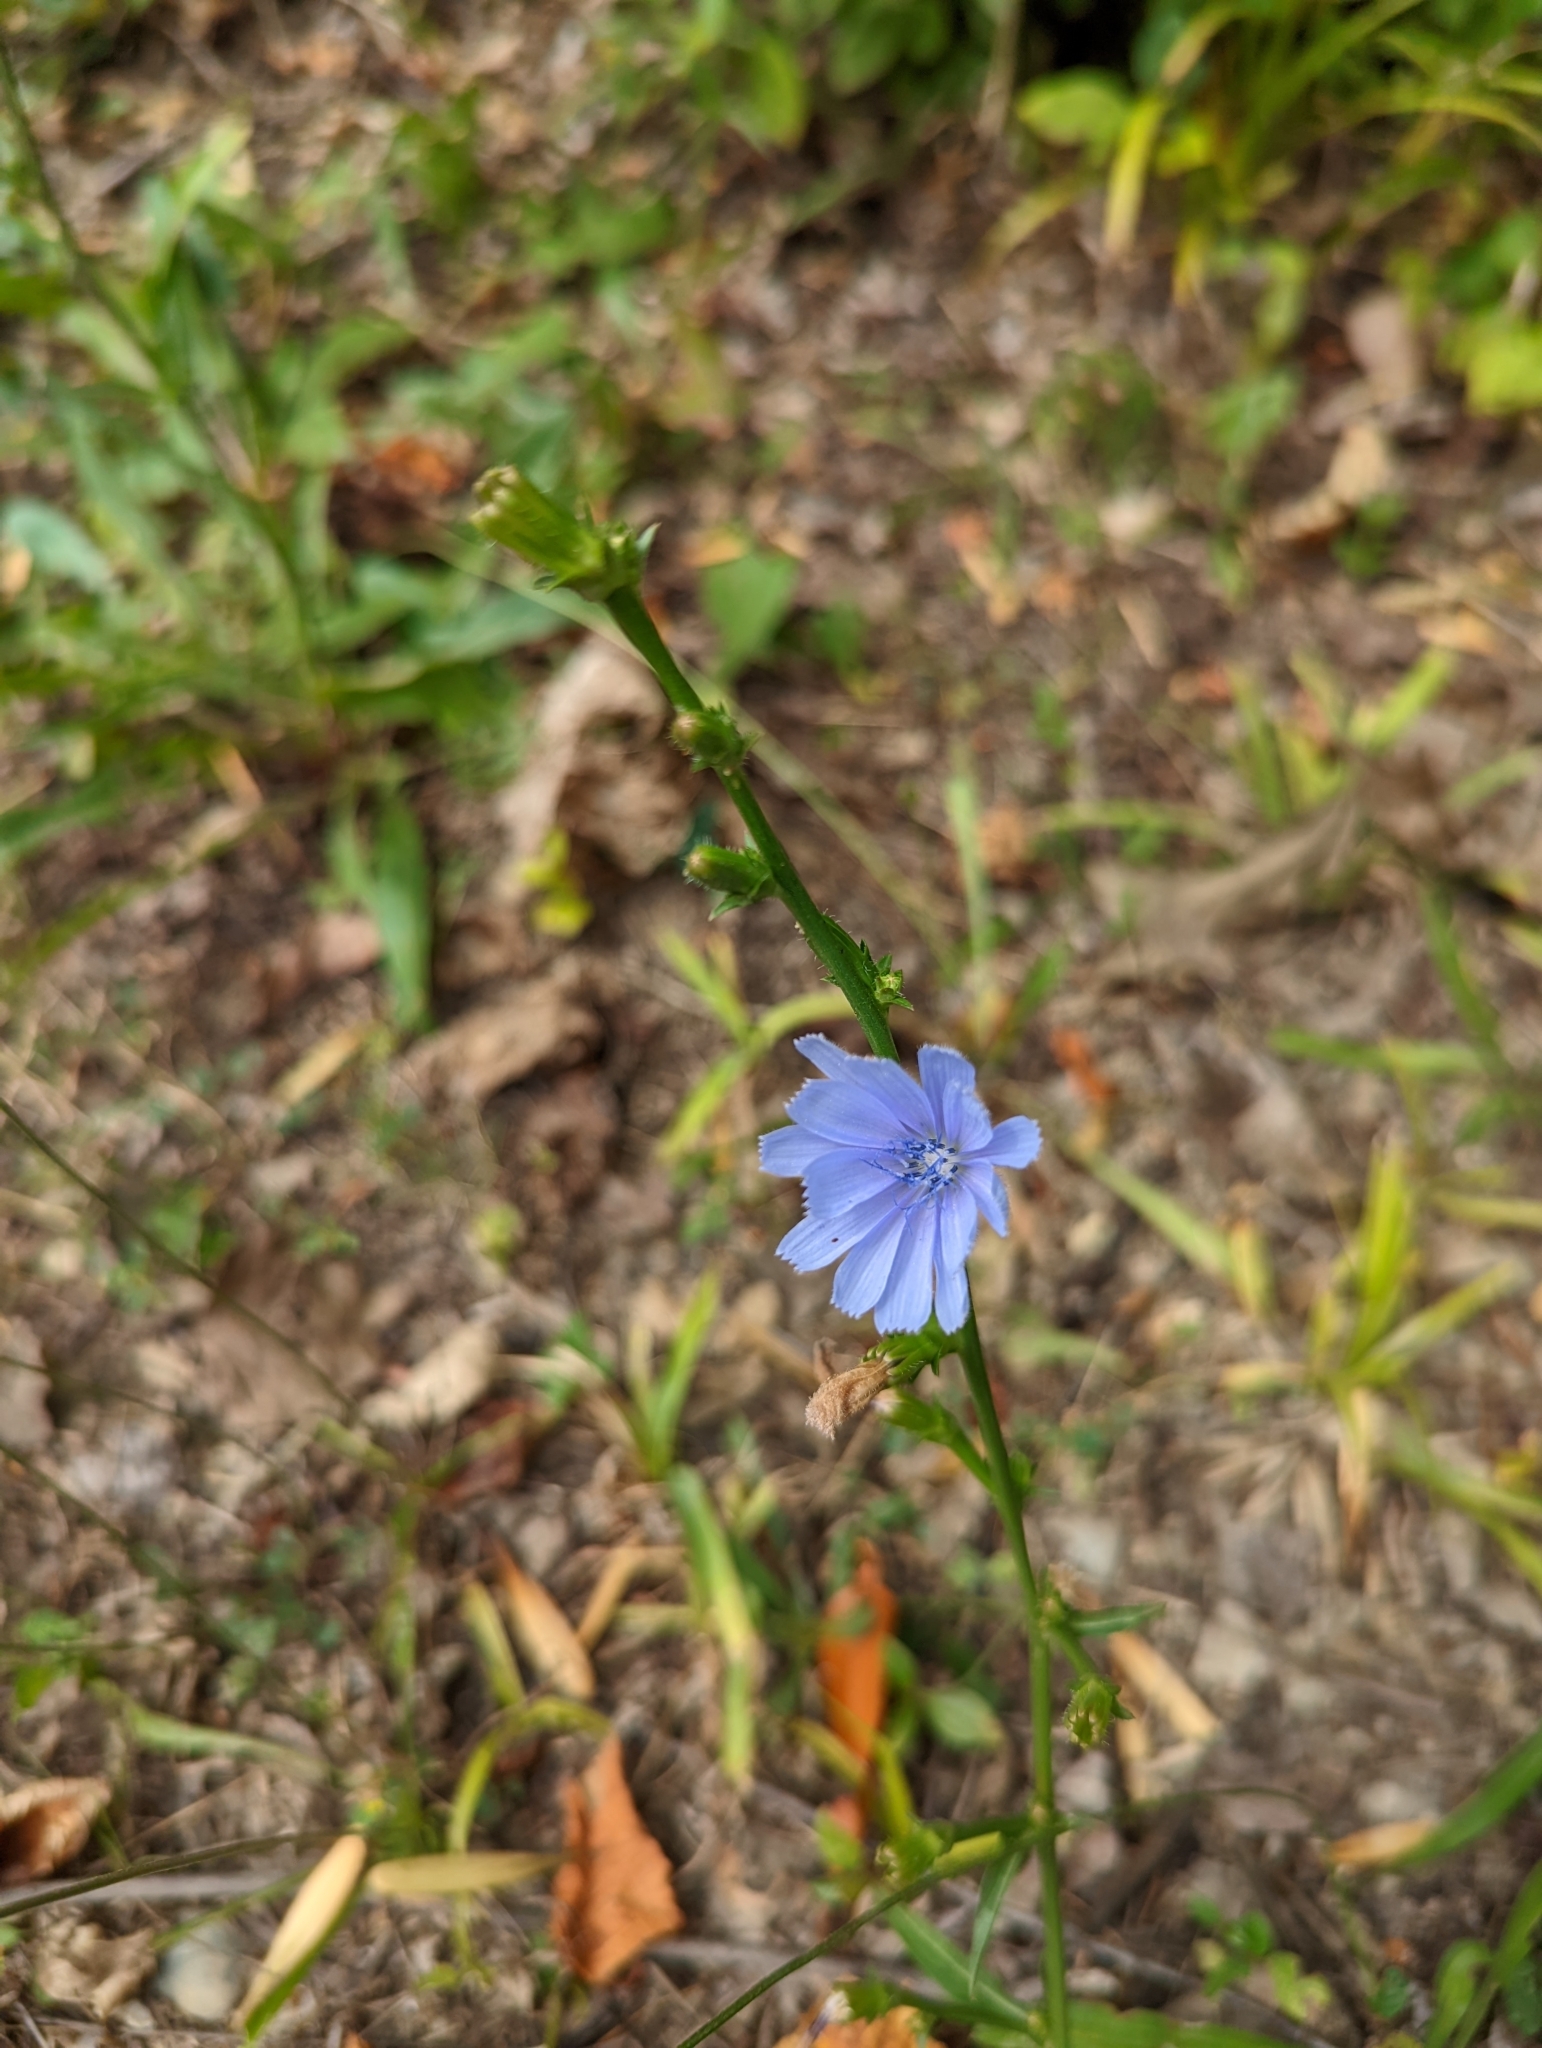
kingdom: Plantae
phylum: Tracheophyta
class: Magnoliopsida
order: Asterales
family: Asteraceae
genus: Cichorium
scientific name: Cichorium intybus
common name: Chicory
